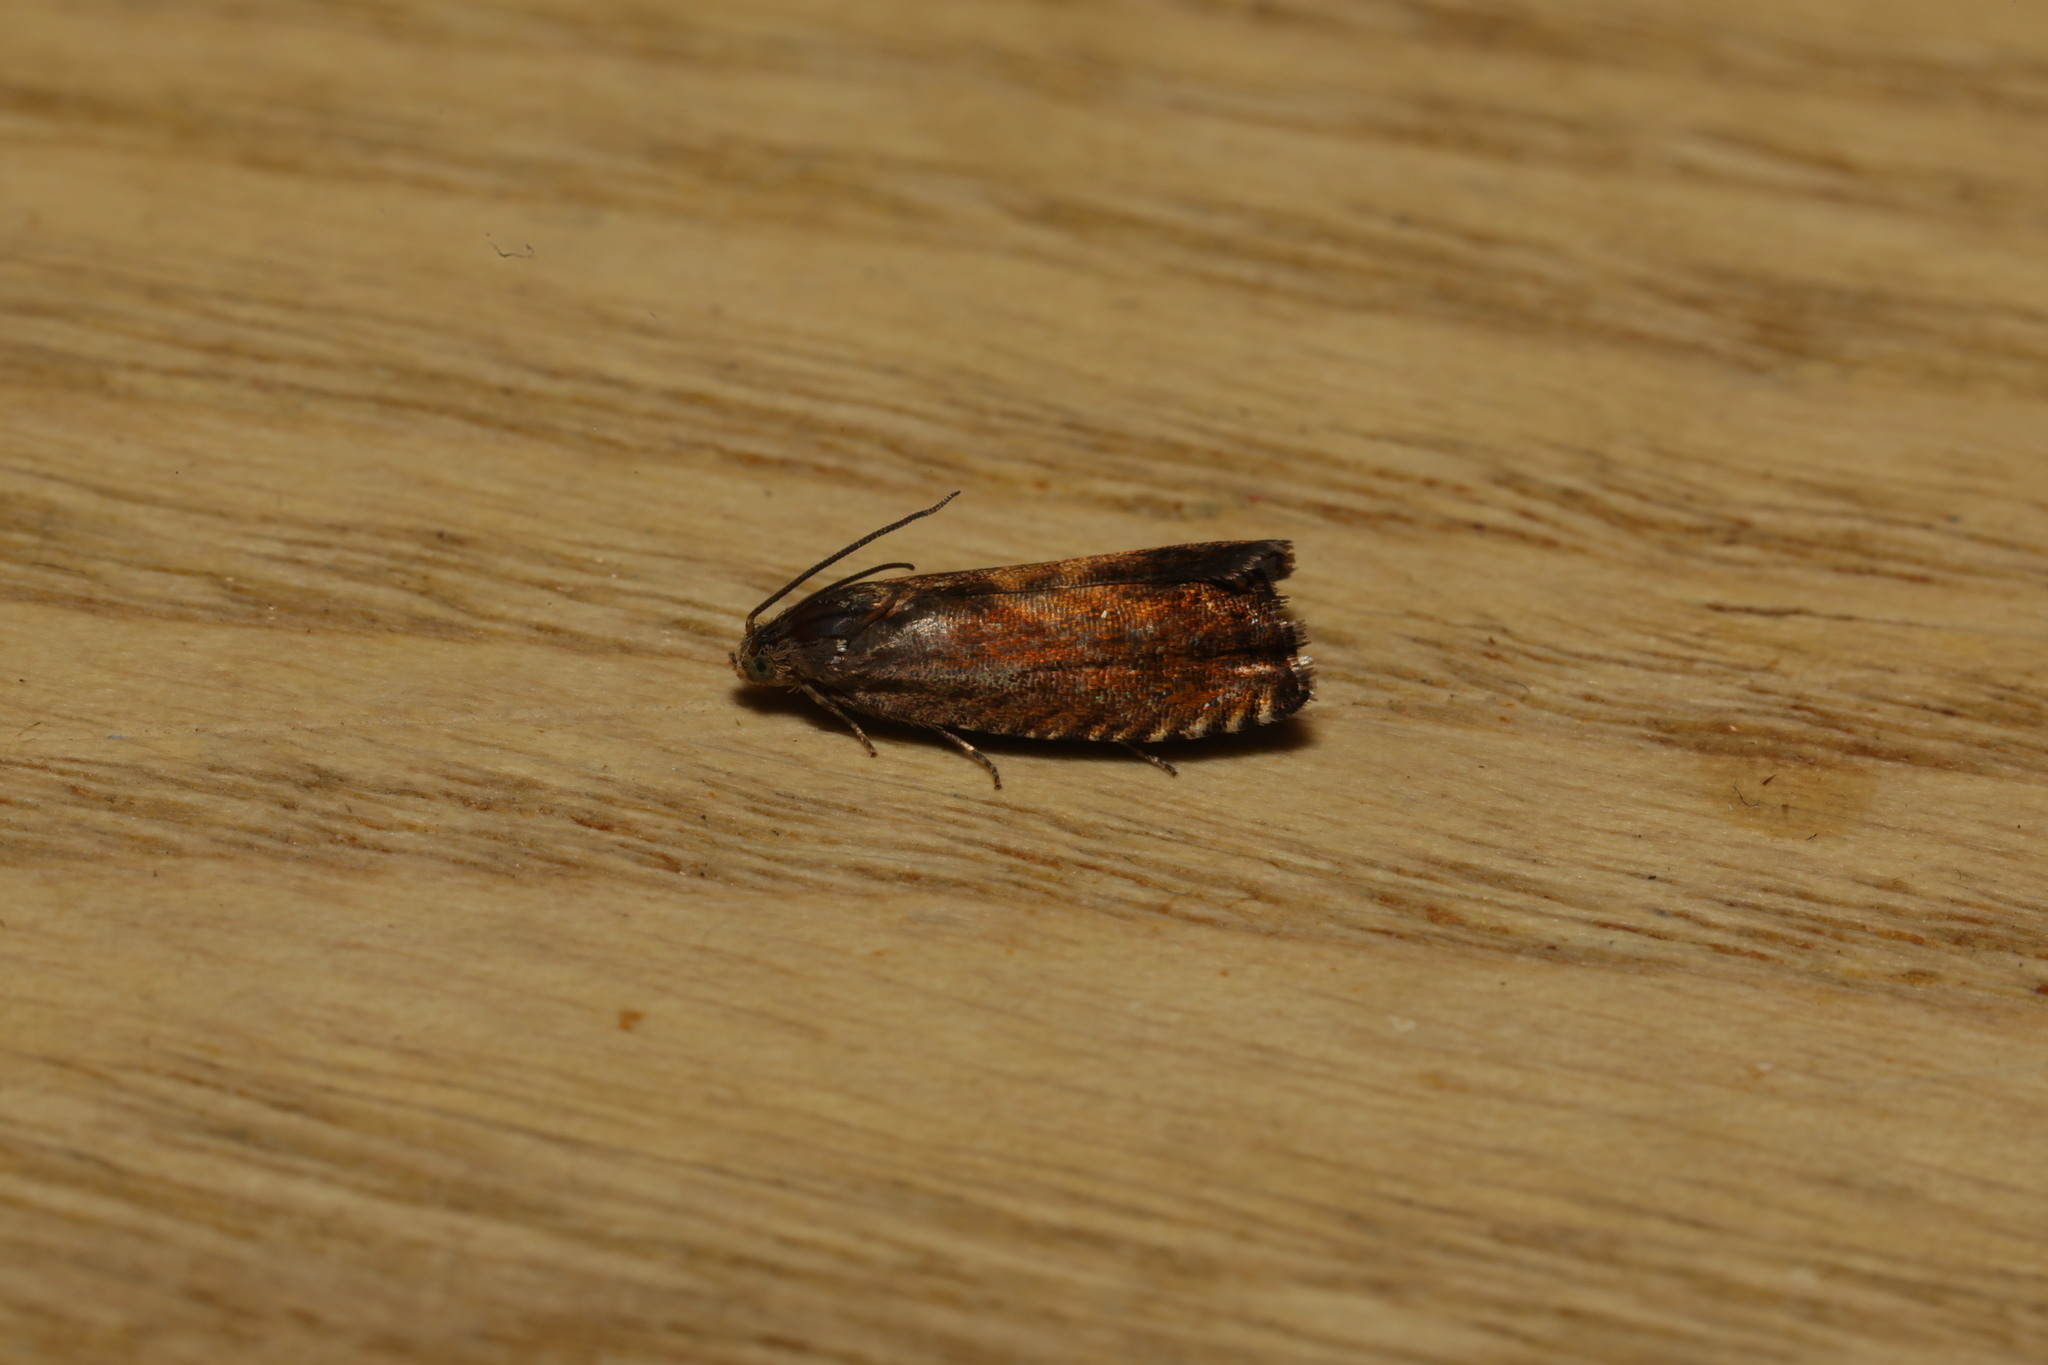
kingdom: Animalia
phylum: Arthropoda
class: Insecta
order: Lepidoptera
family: Tortricidae
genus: Pammene
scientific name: Pammene aurita
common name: Sycamore piercer
